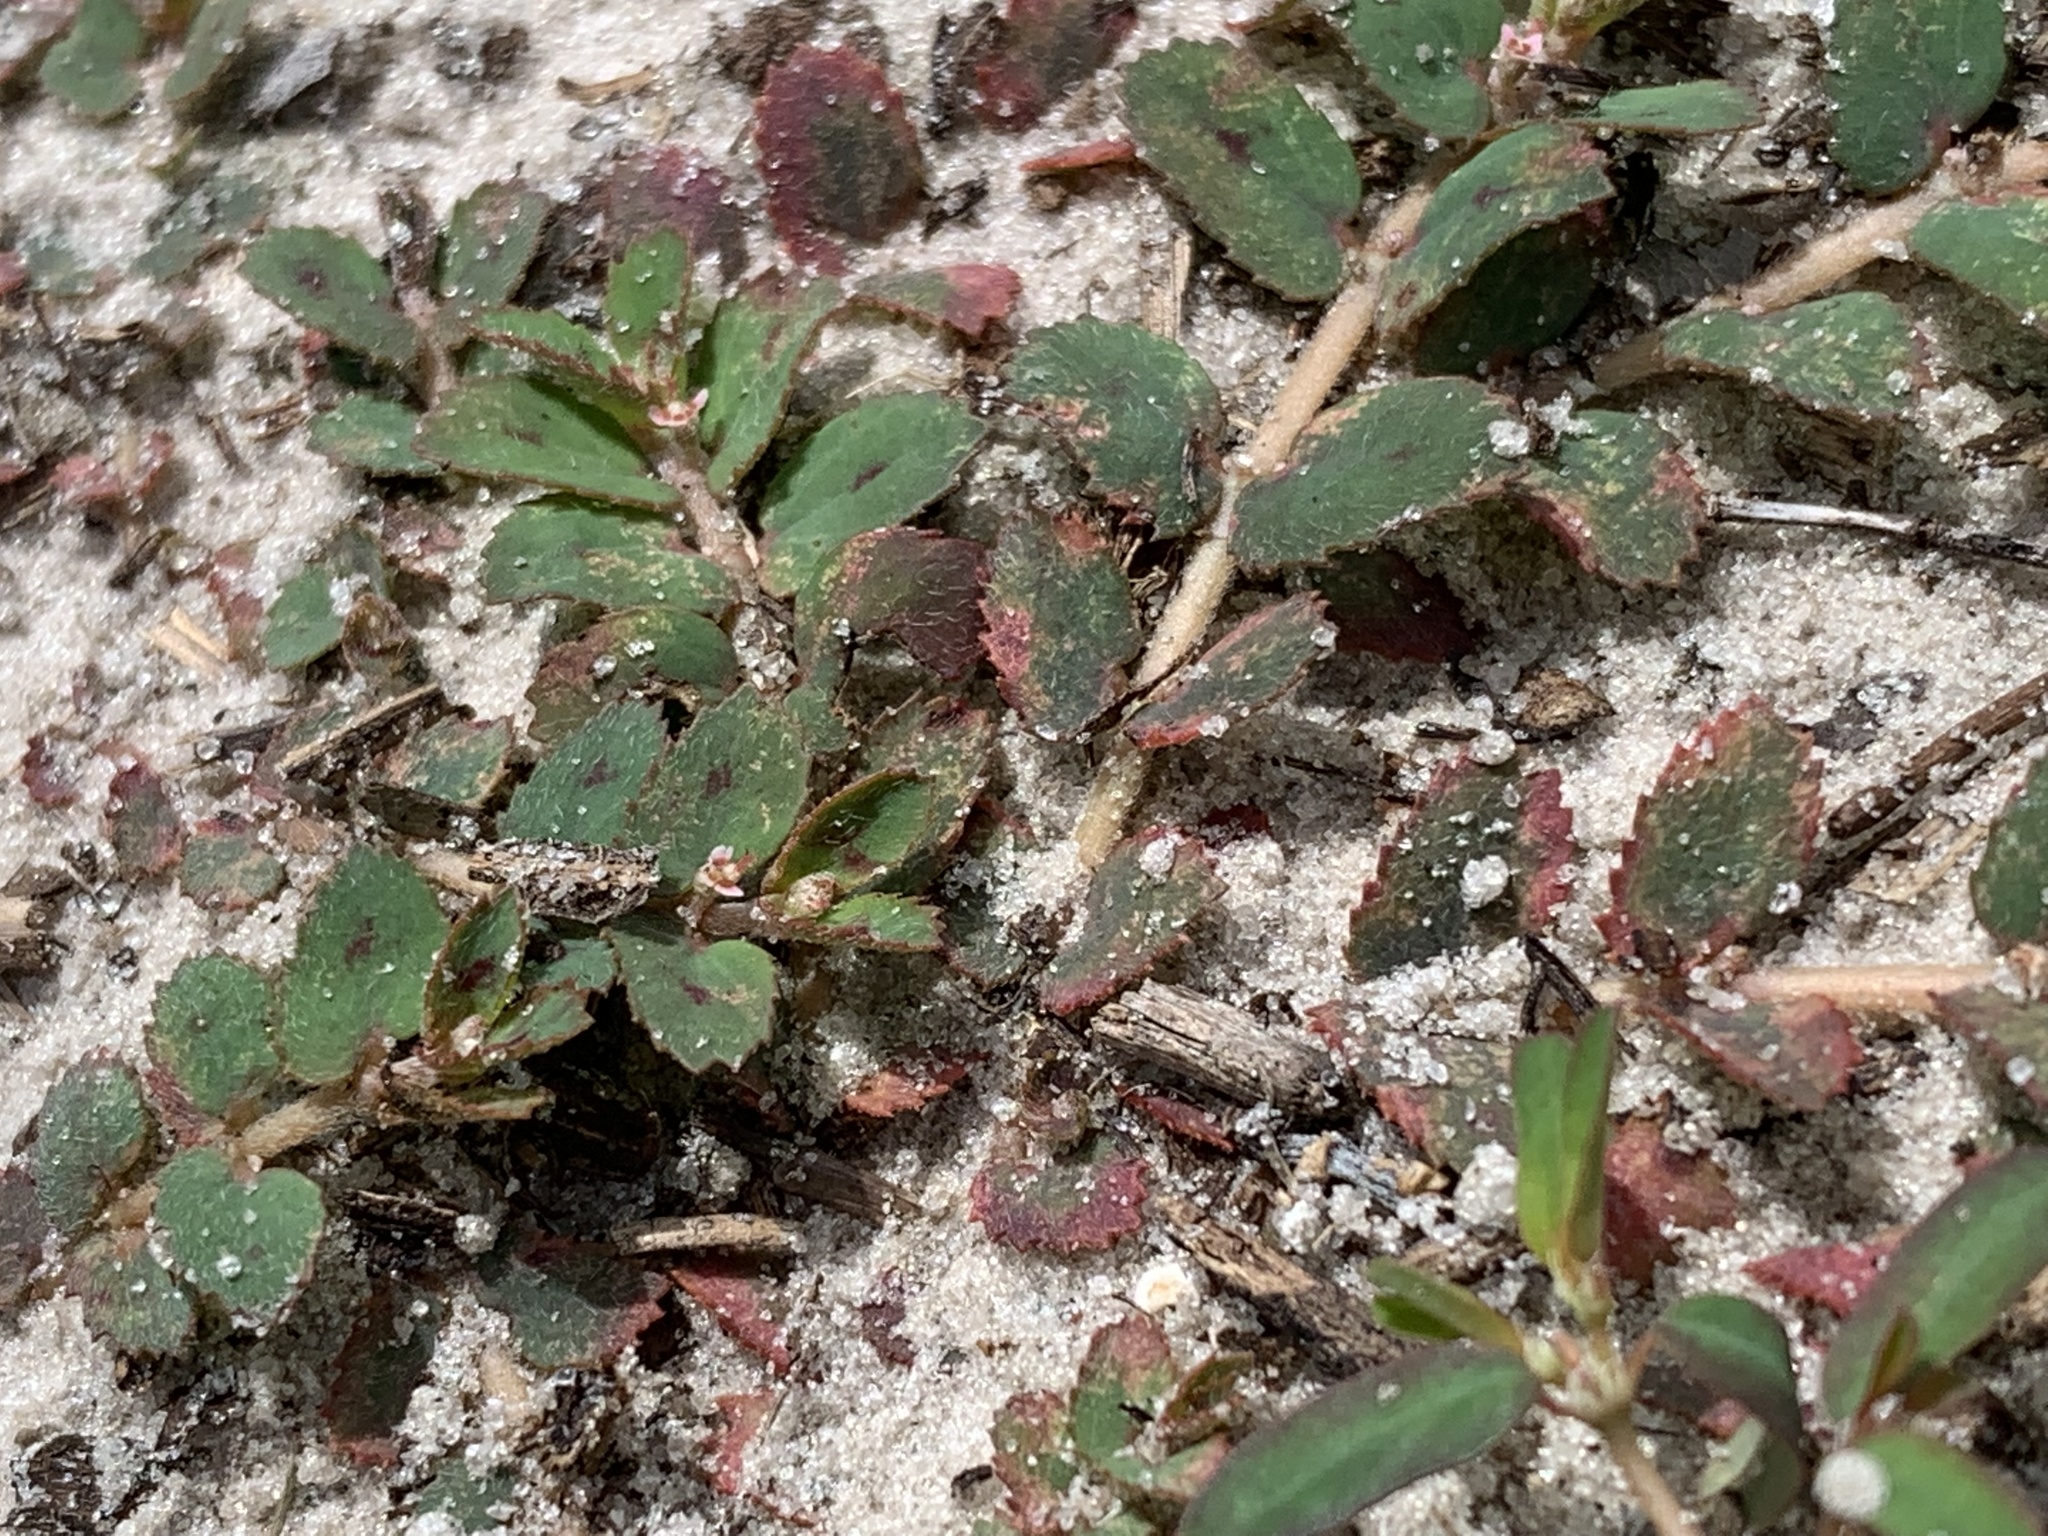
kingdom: Plantae
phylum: Tracheophyta
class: Magnoliopsida
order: Malpighiales
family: Euphorbiaceae
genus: Euphorbia
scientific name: Euphorbia thymifolia
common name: Gulf sandmat
